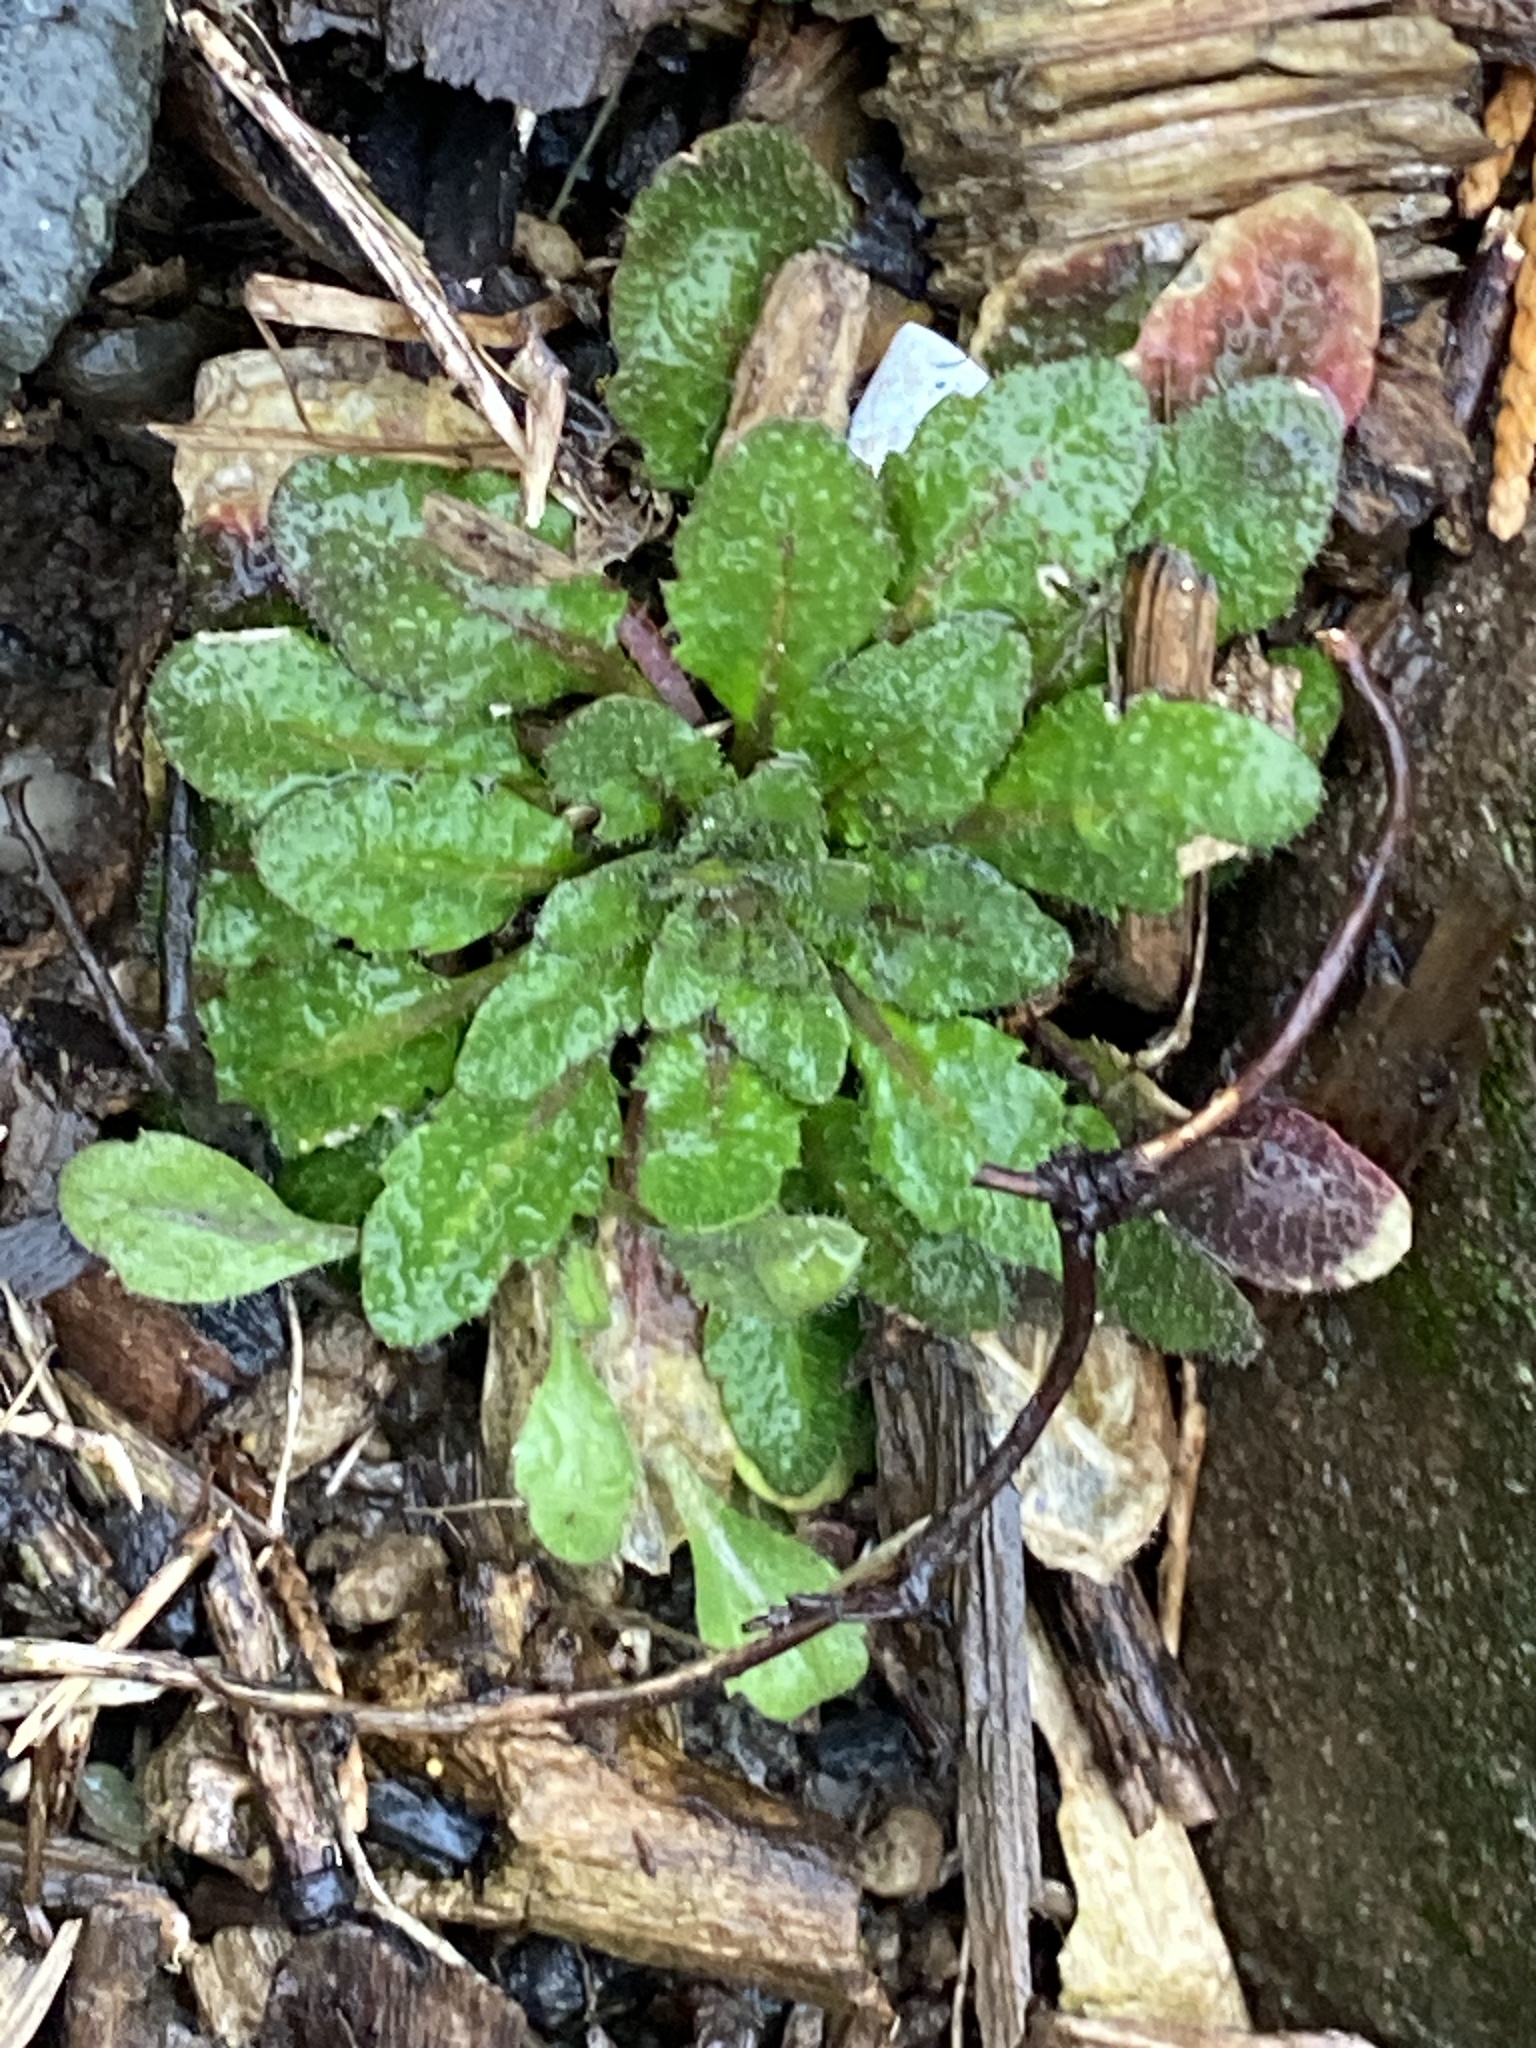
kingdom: Plantae
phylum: Tracheophyta
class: Magnoliopsida
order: Brassicales
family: Brassicaceae
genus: Arabidopsis
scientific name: Arabidopsis thaliana
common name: Thale cress
